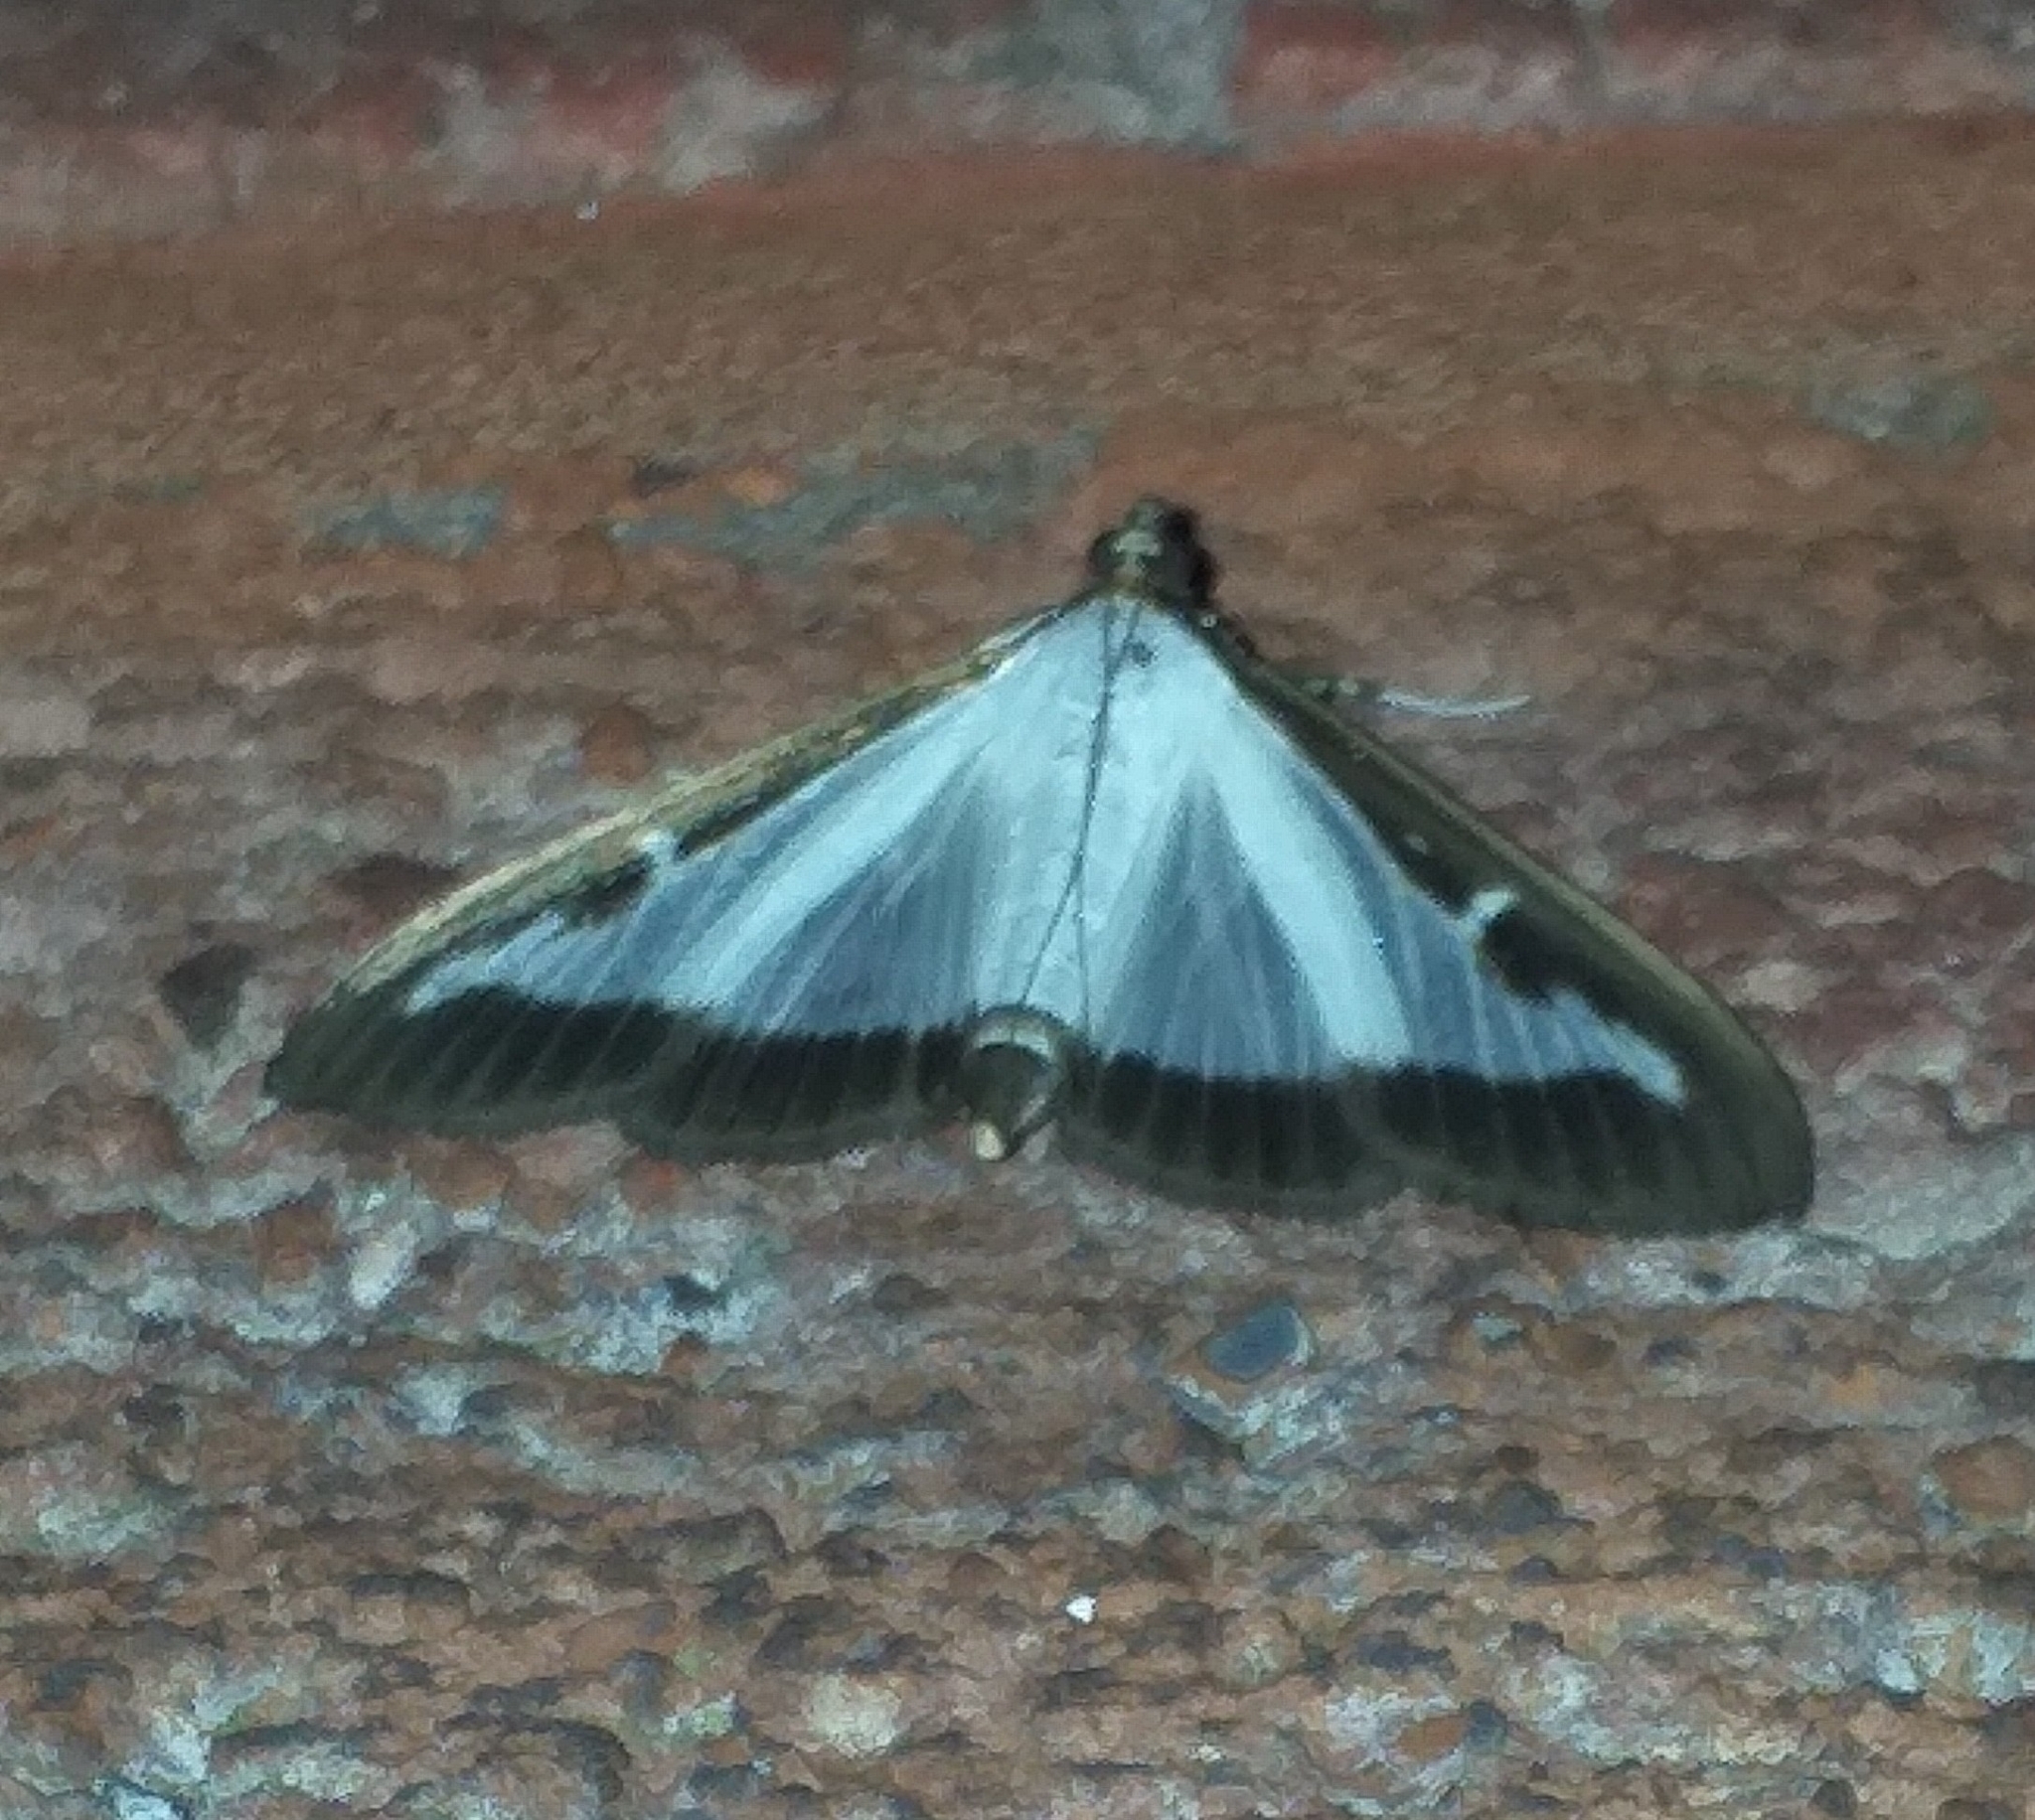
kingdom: Animalia
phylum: Arthropoda
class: Insecta
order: Lepidoptera
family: Crambidae
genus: Cydalima
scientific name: Cydalima perspectalis
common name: Box tree moth
